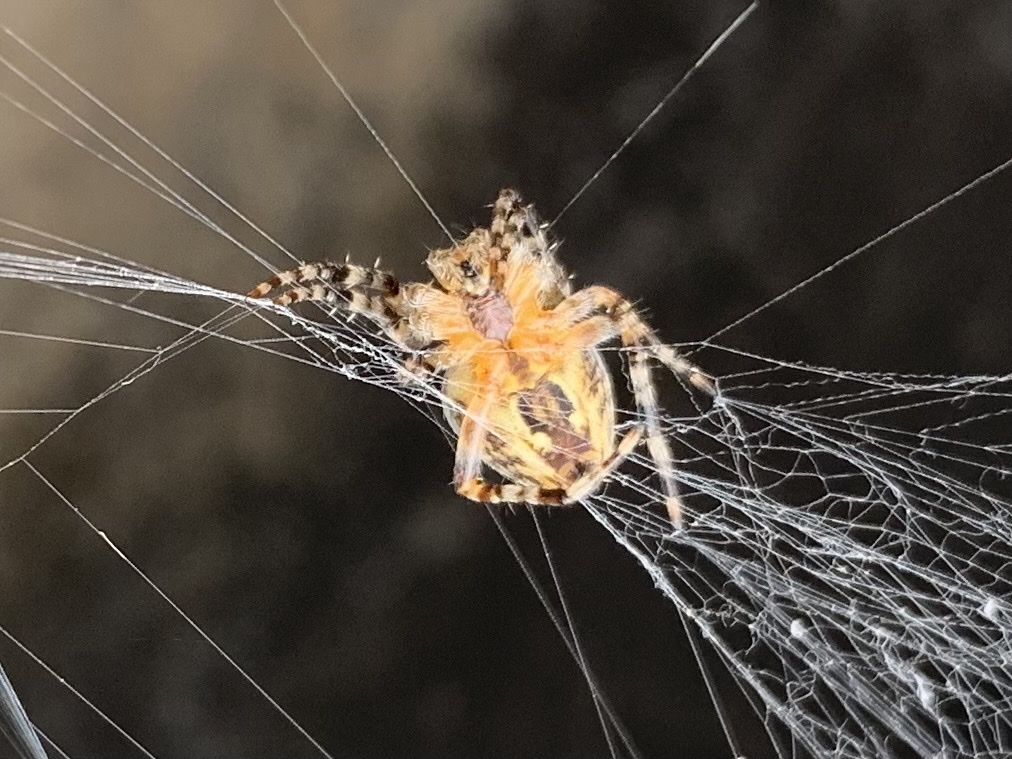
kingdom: Animalia
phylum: Arthropoda
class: Arachnida
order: Araneae
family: Araneidae
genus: Araneus
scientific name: Araneus diadematus
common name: Cross orbweaver
